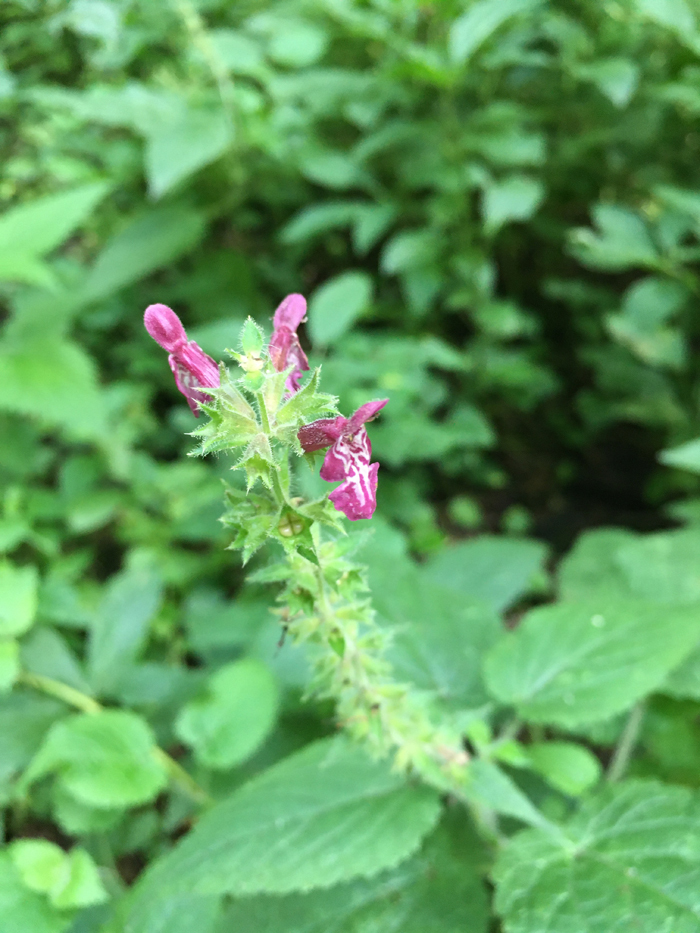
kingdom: Plantae
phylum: Tracheophyta
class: Magnoliopsida
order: Lamiales
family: Lamiaceae
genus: Stachys
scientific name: Stachys sylvatica
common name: Hedge woundwort
